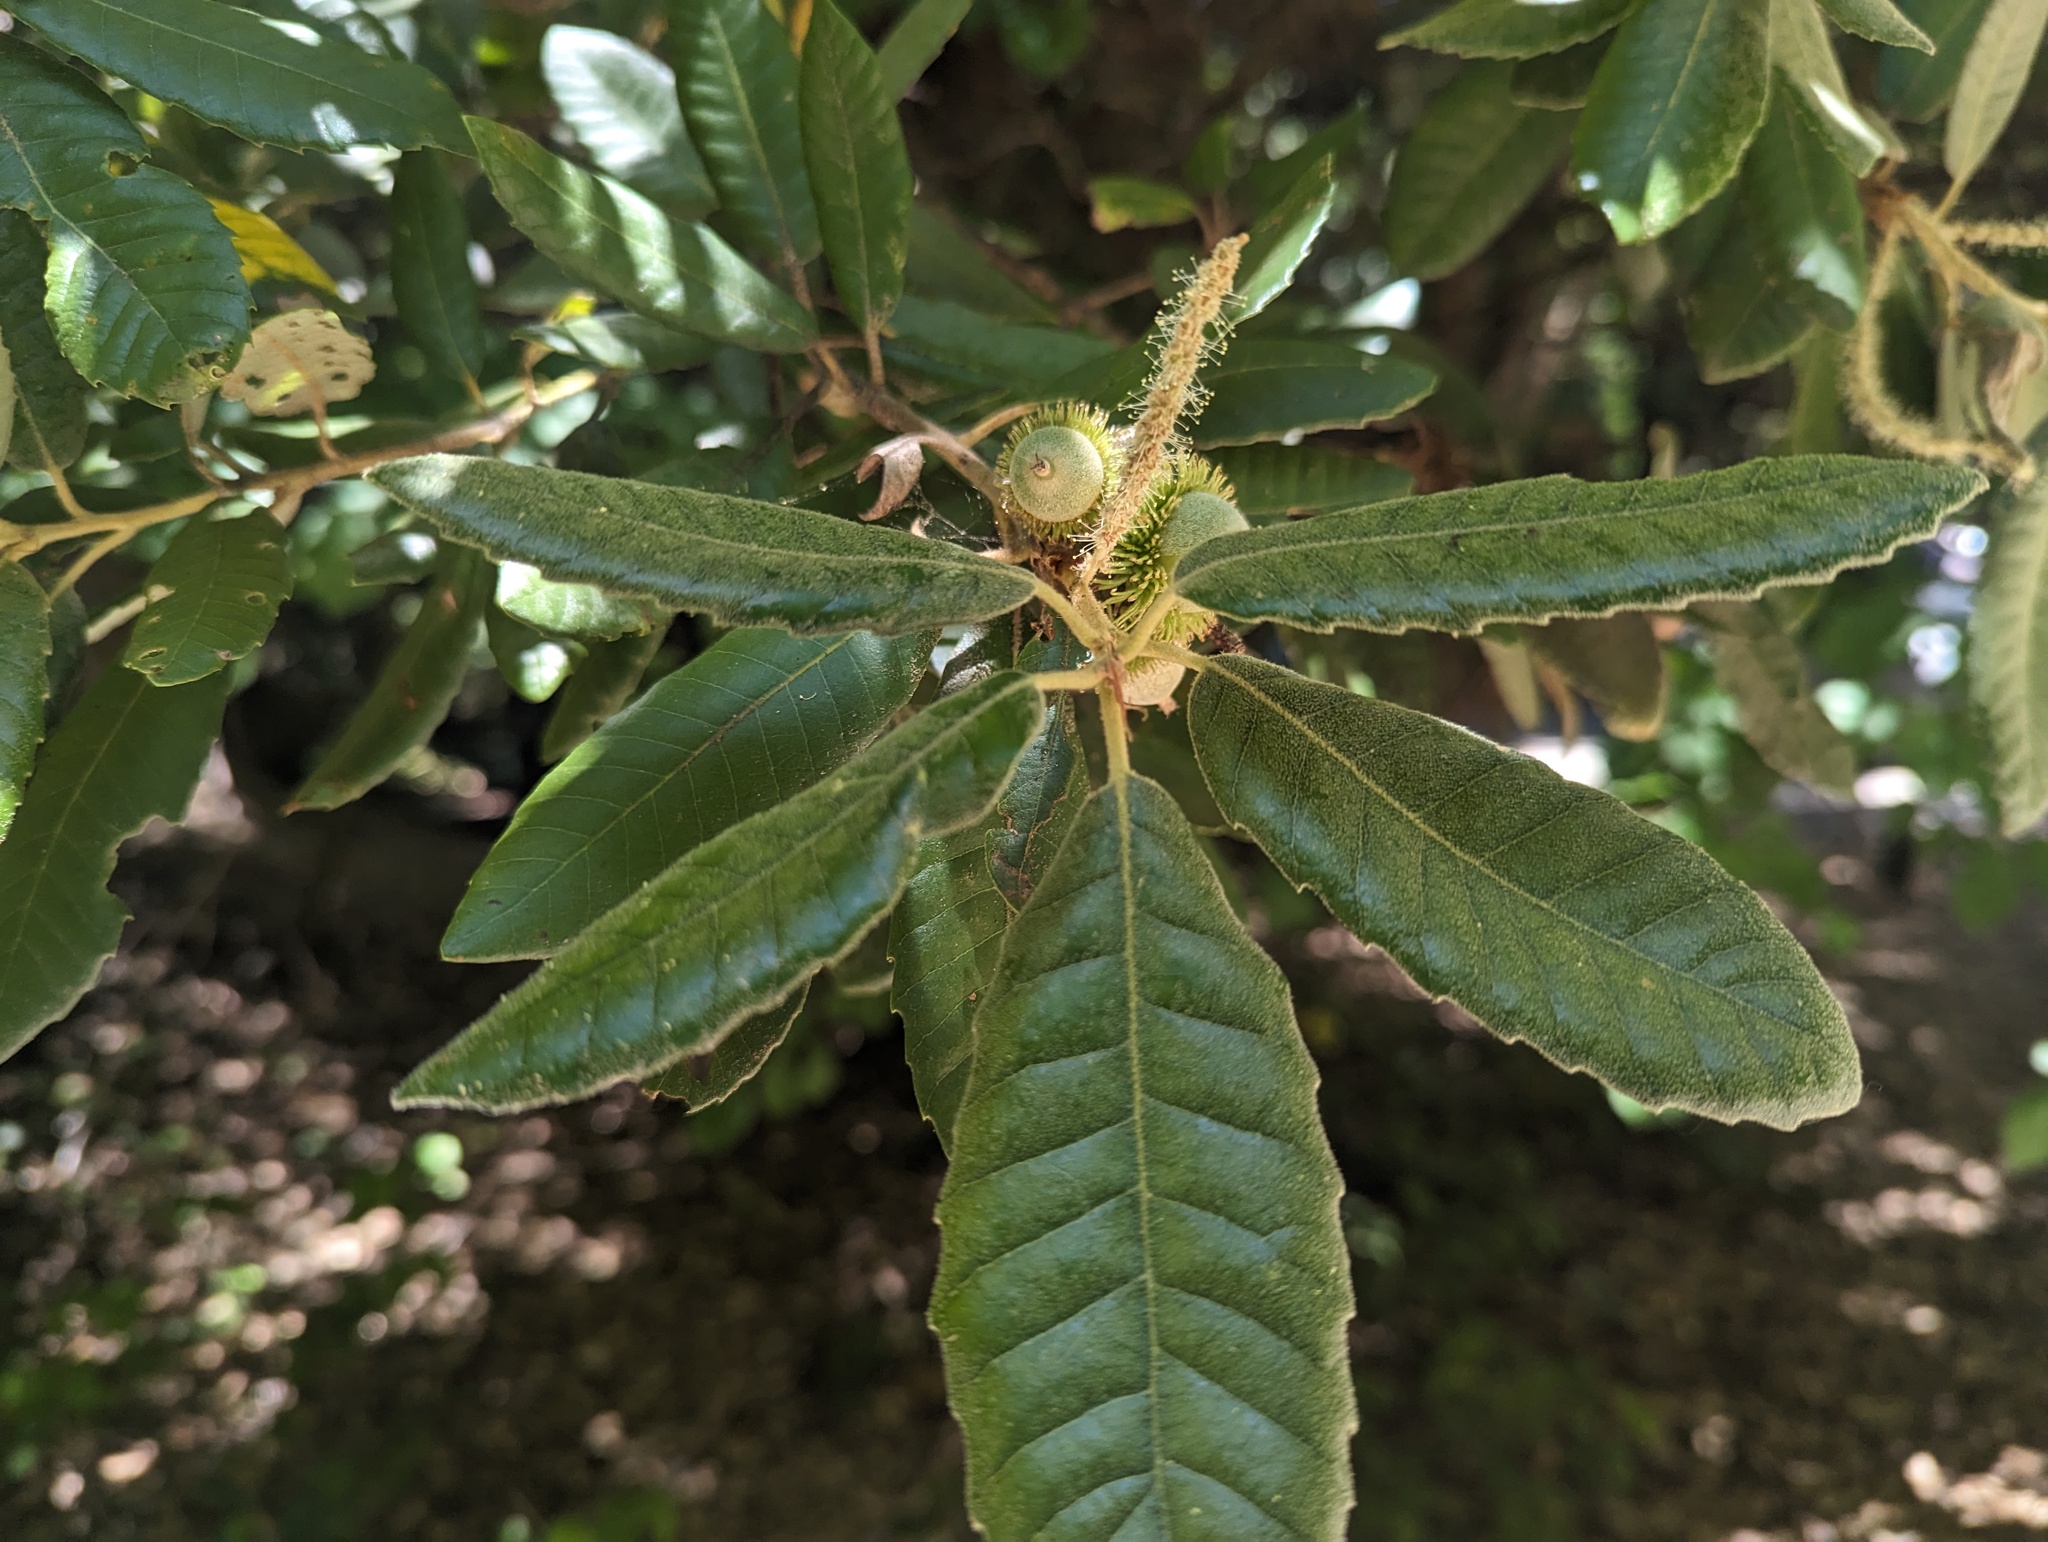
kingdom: Plantae
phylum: Tracheophyta
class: Magnoliopsida
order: Fagales
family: Fagaceae
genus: Notholithocarpus
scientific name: Notholithocarpus densiflorus
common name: Tan bark oak
